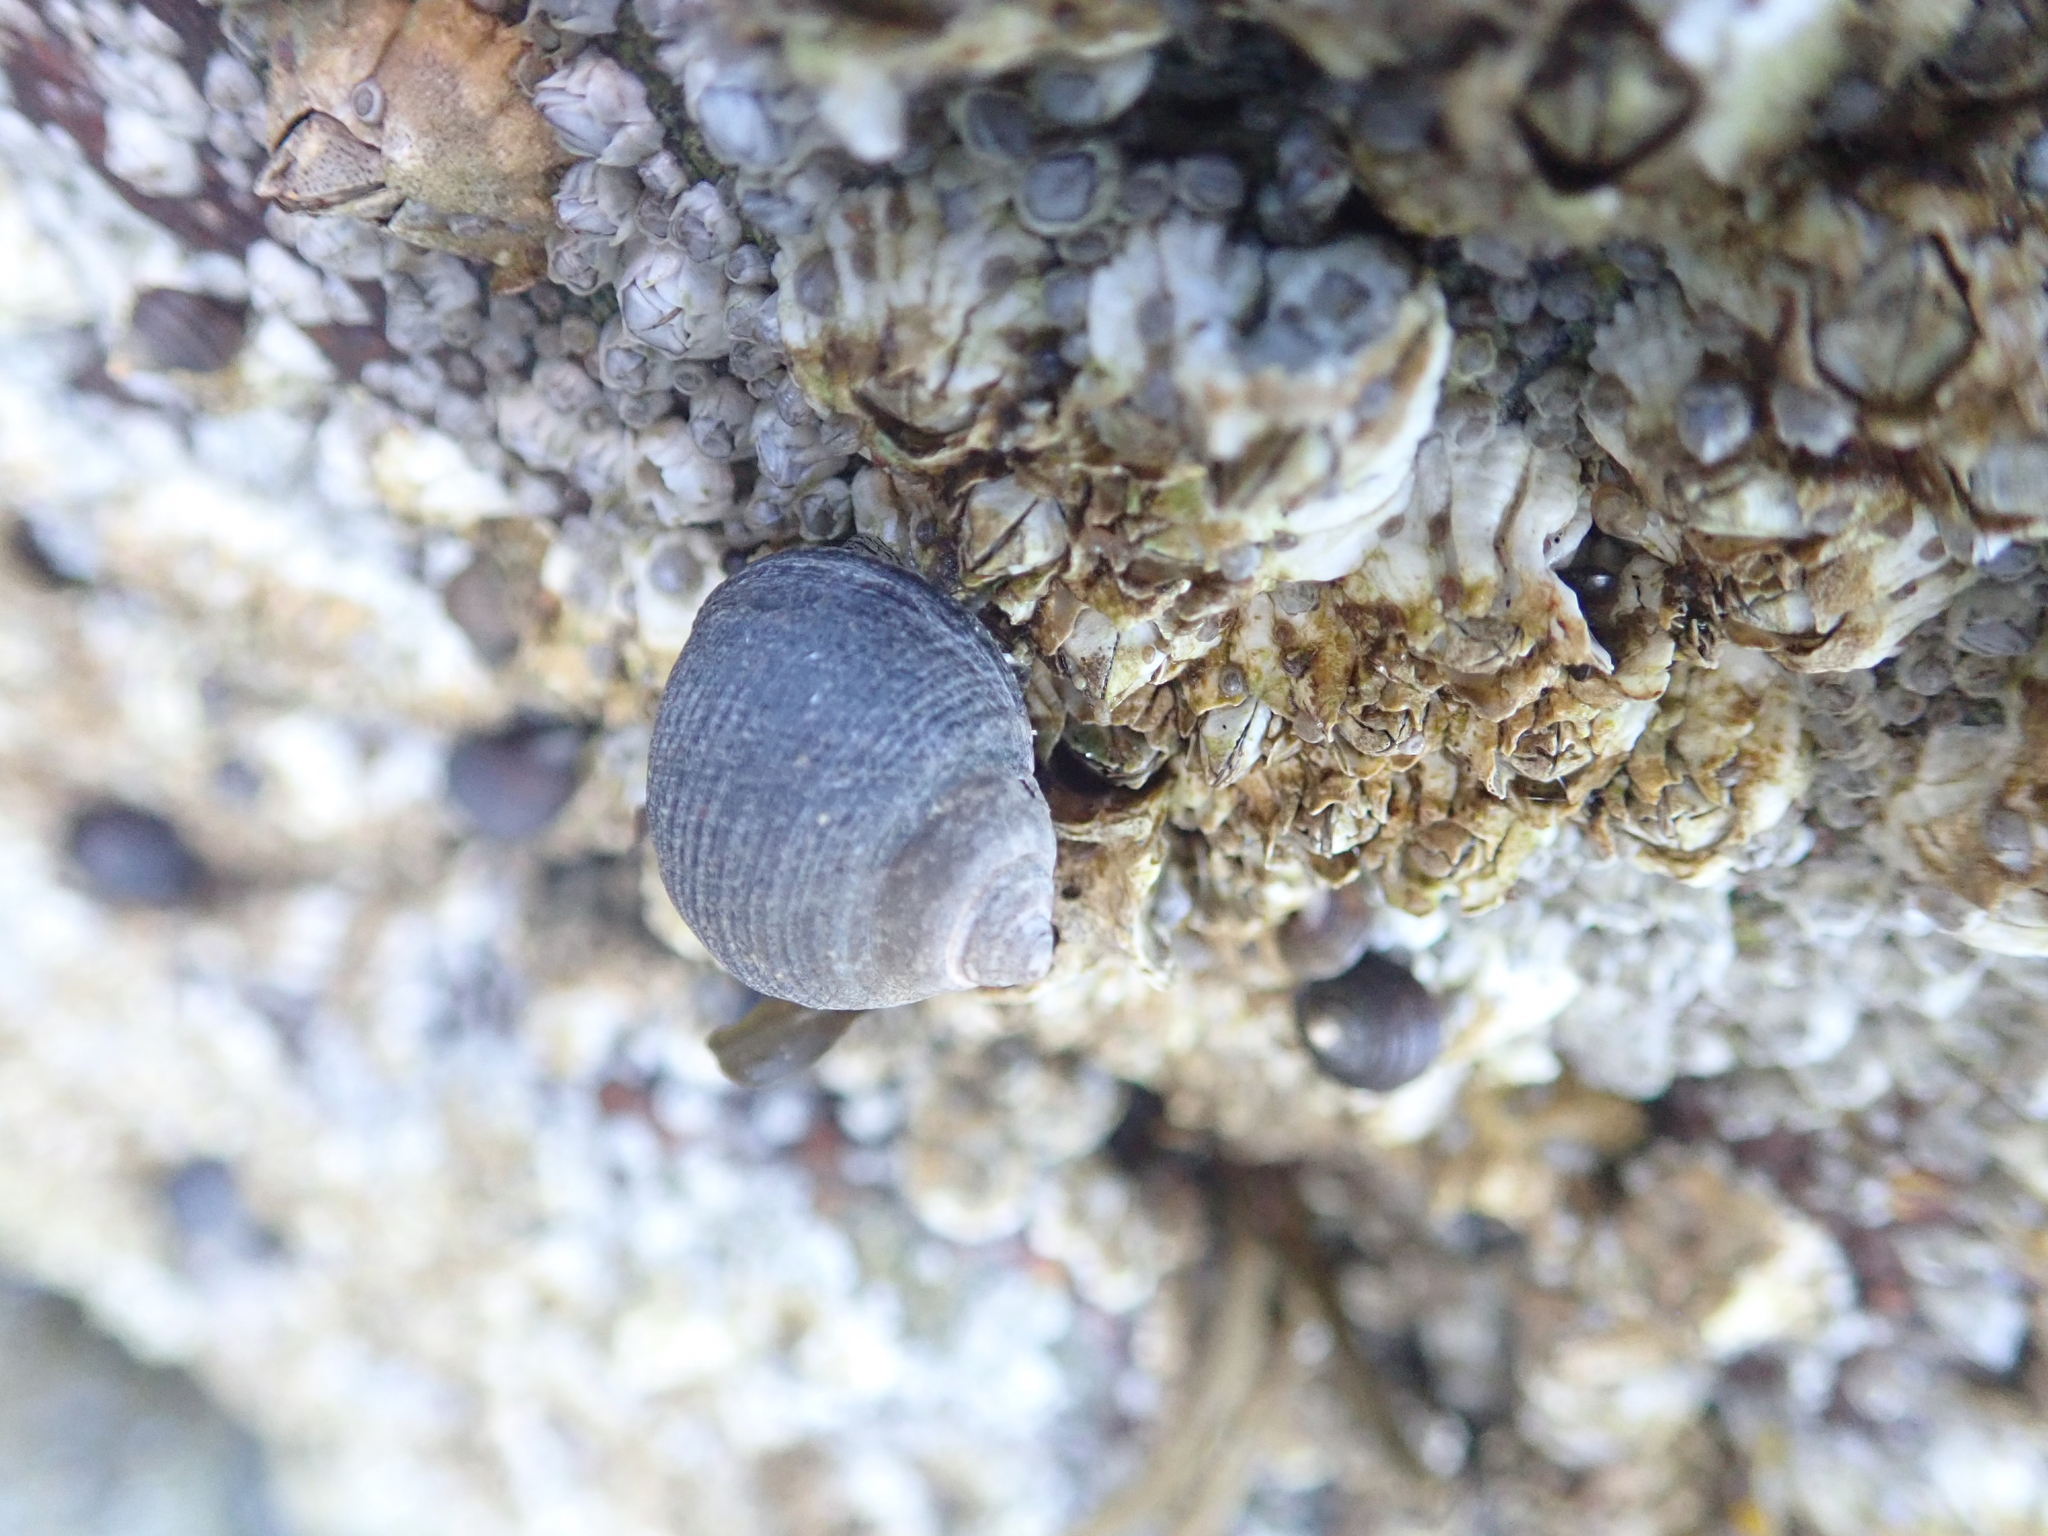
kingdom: Animalia
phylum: Mollusca
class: Gastropoda
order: Littorinimorpha
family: Littorinidae
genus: Littorina
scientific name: Littorina littorea
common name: Common periwinkle
